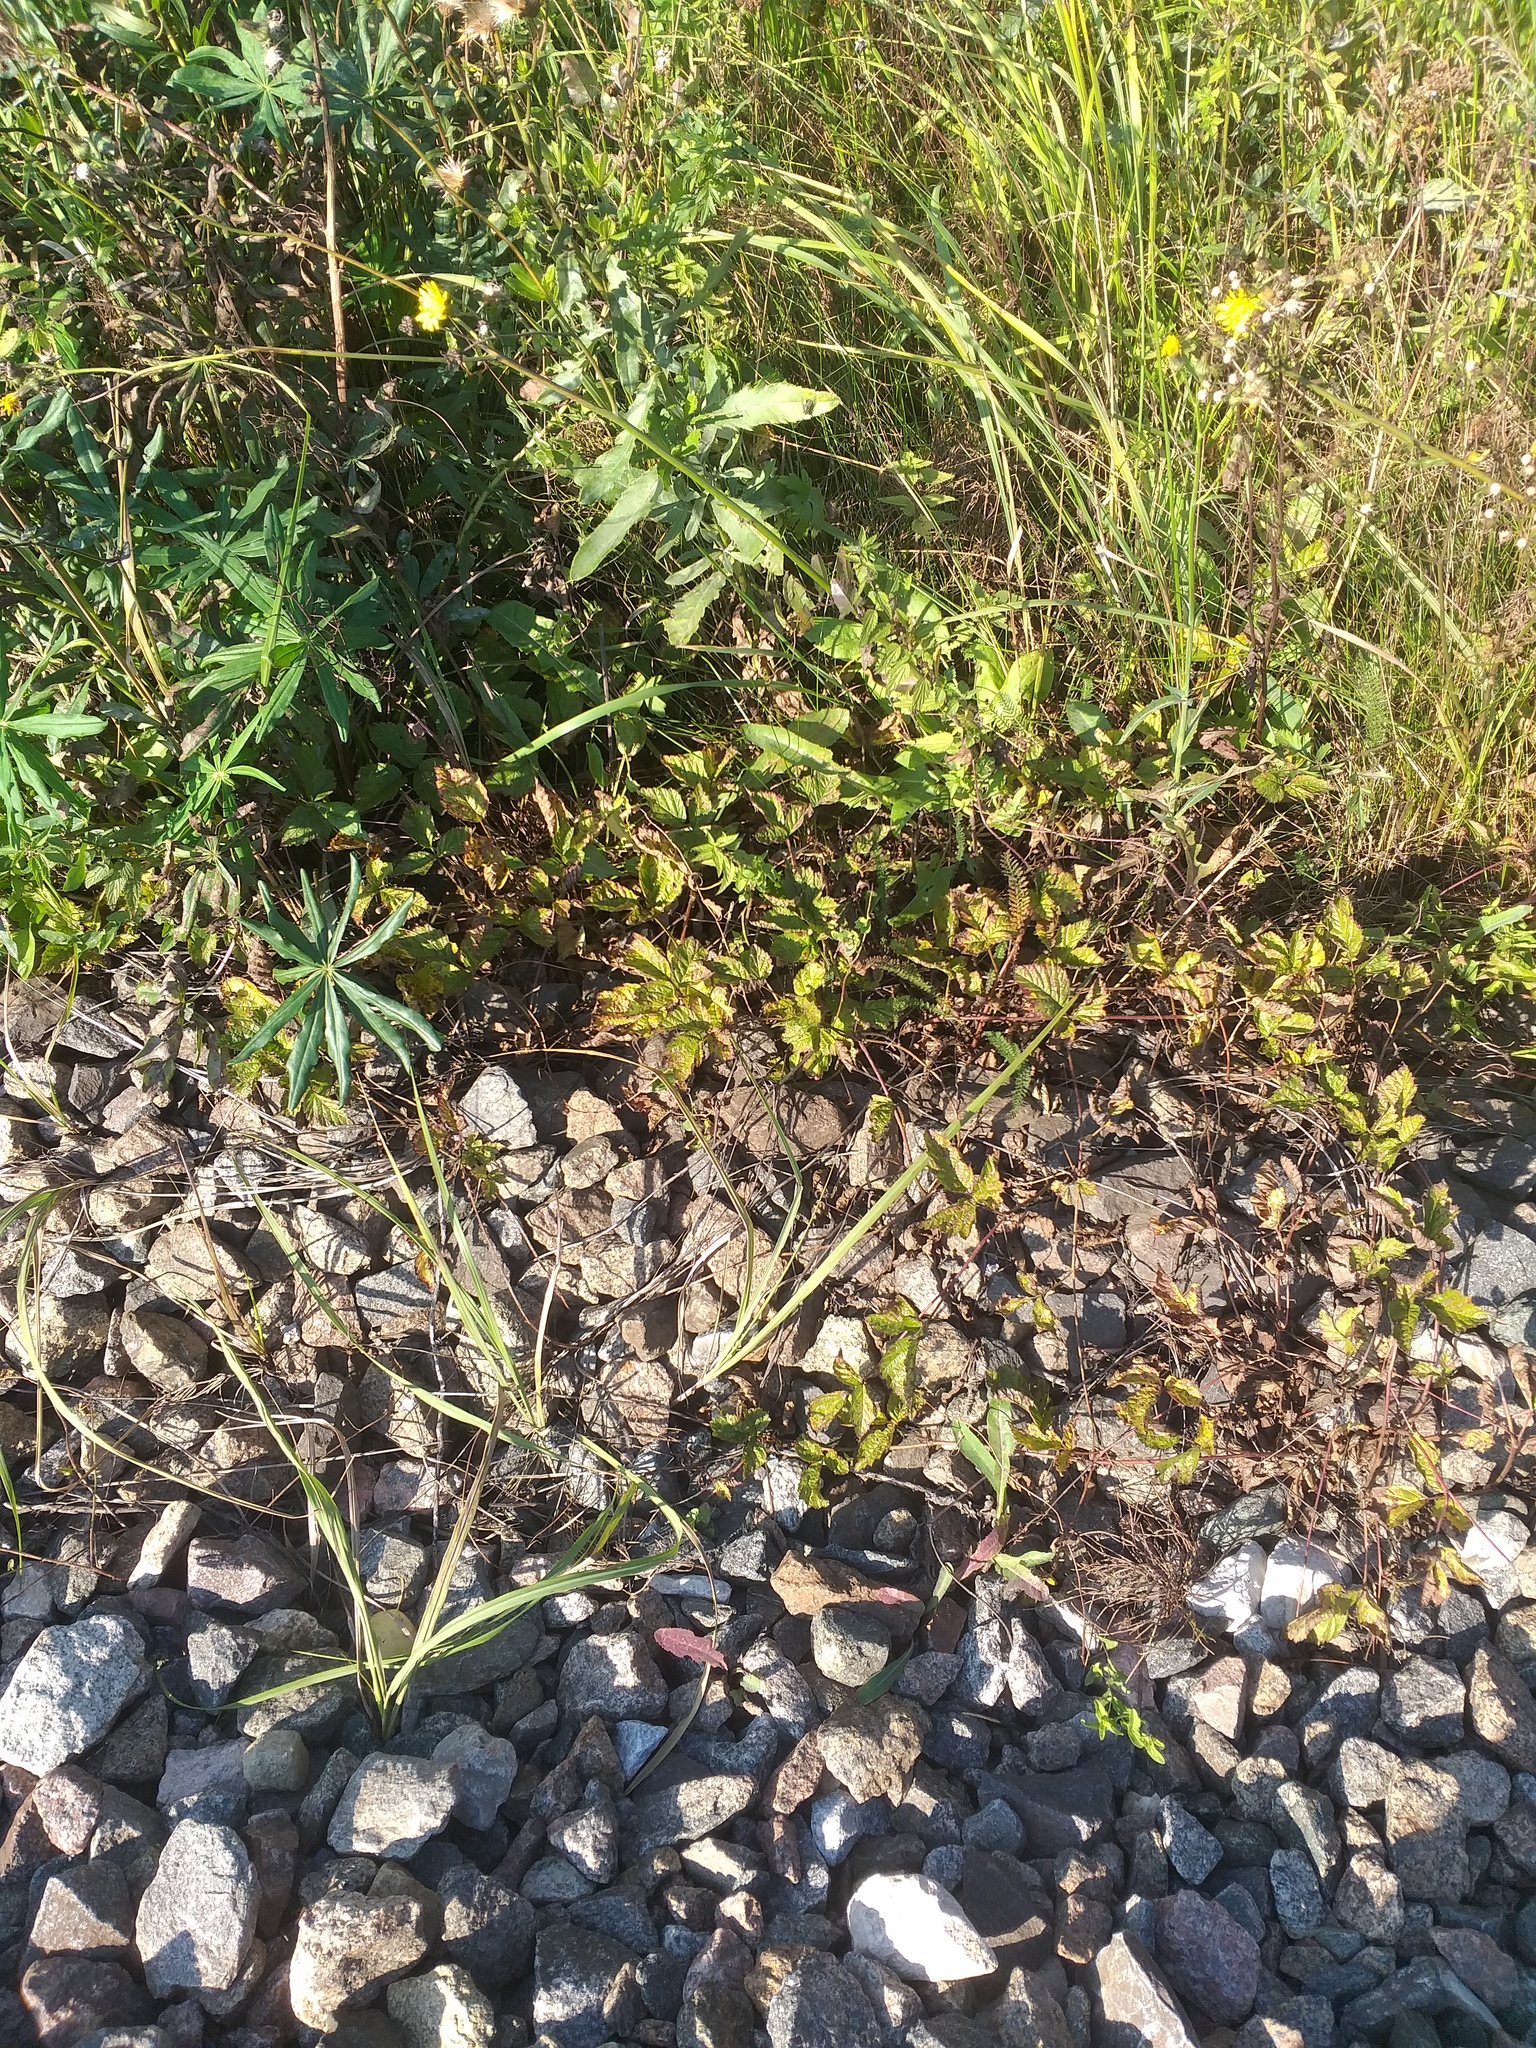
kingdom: Plantae
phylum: Tracheophyta
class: Magnoliopsida
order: Rosales
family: Rosaceae
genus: Rubus
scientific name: Rubus saxatilis
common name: Stone bramble
